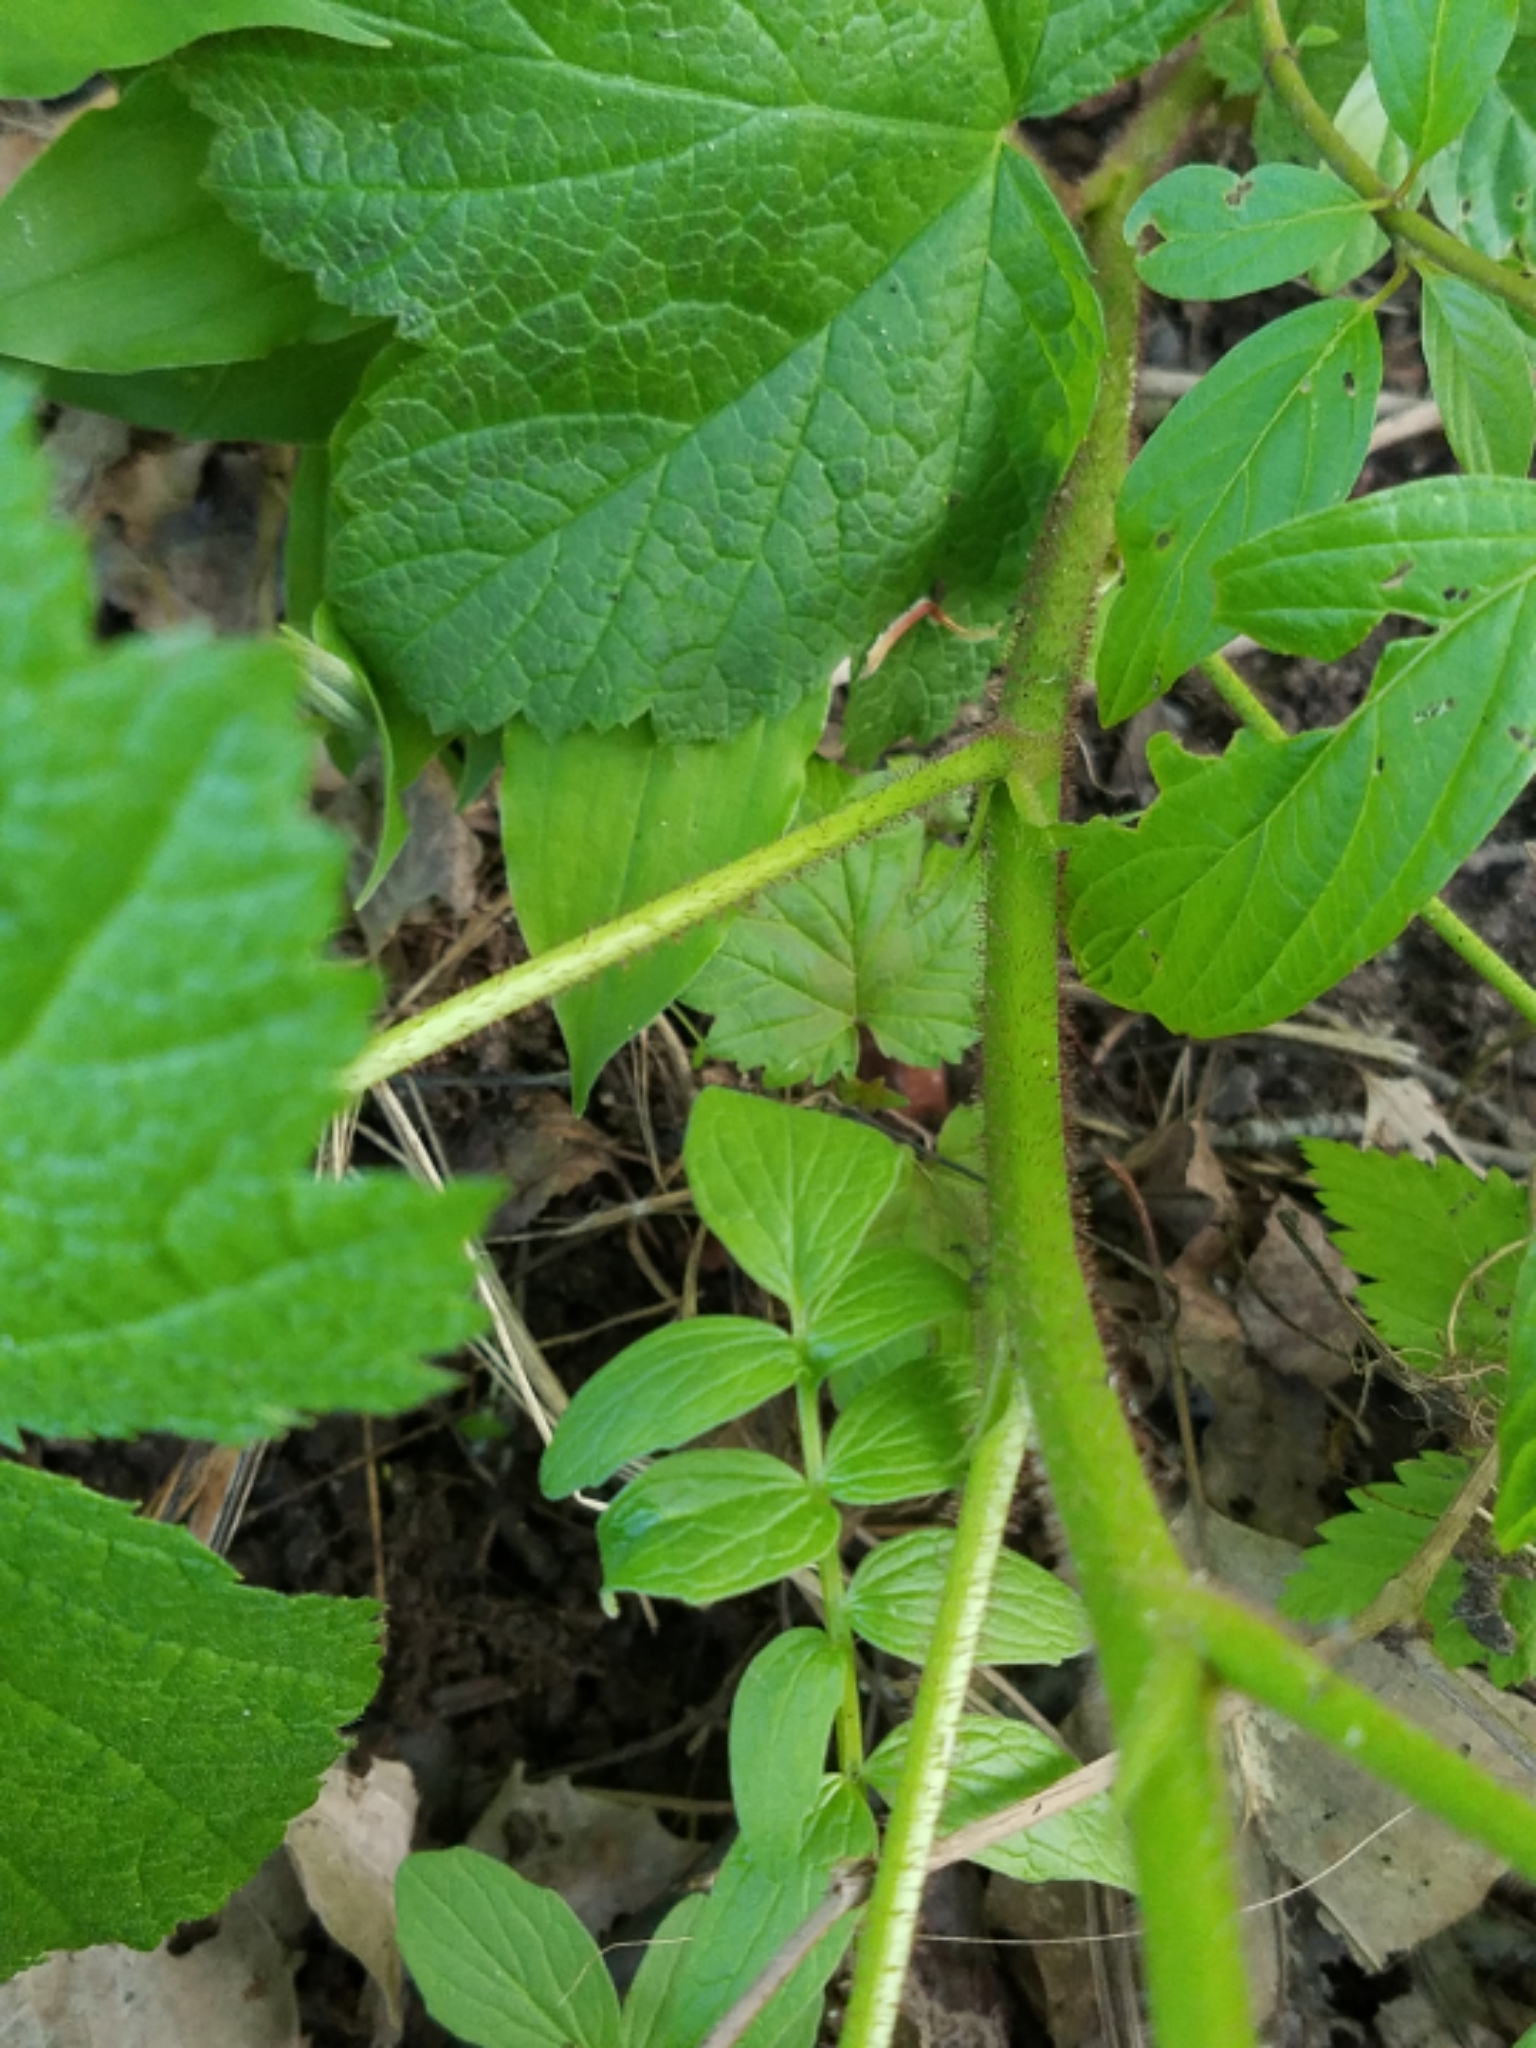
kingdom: Plantae
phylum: Tracheophyta
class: Magnoliopsida
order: Rosales
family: Rosaceae
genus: Rubus
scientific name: Rubus parviflorus
